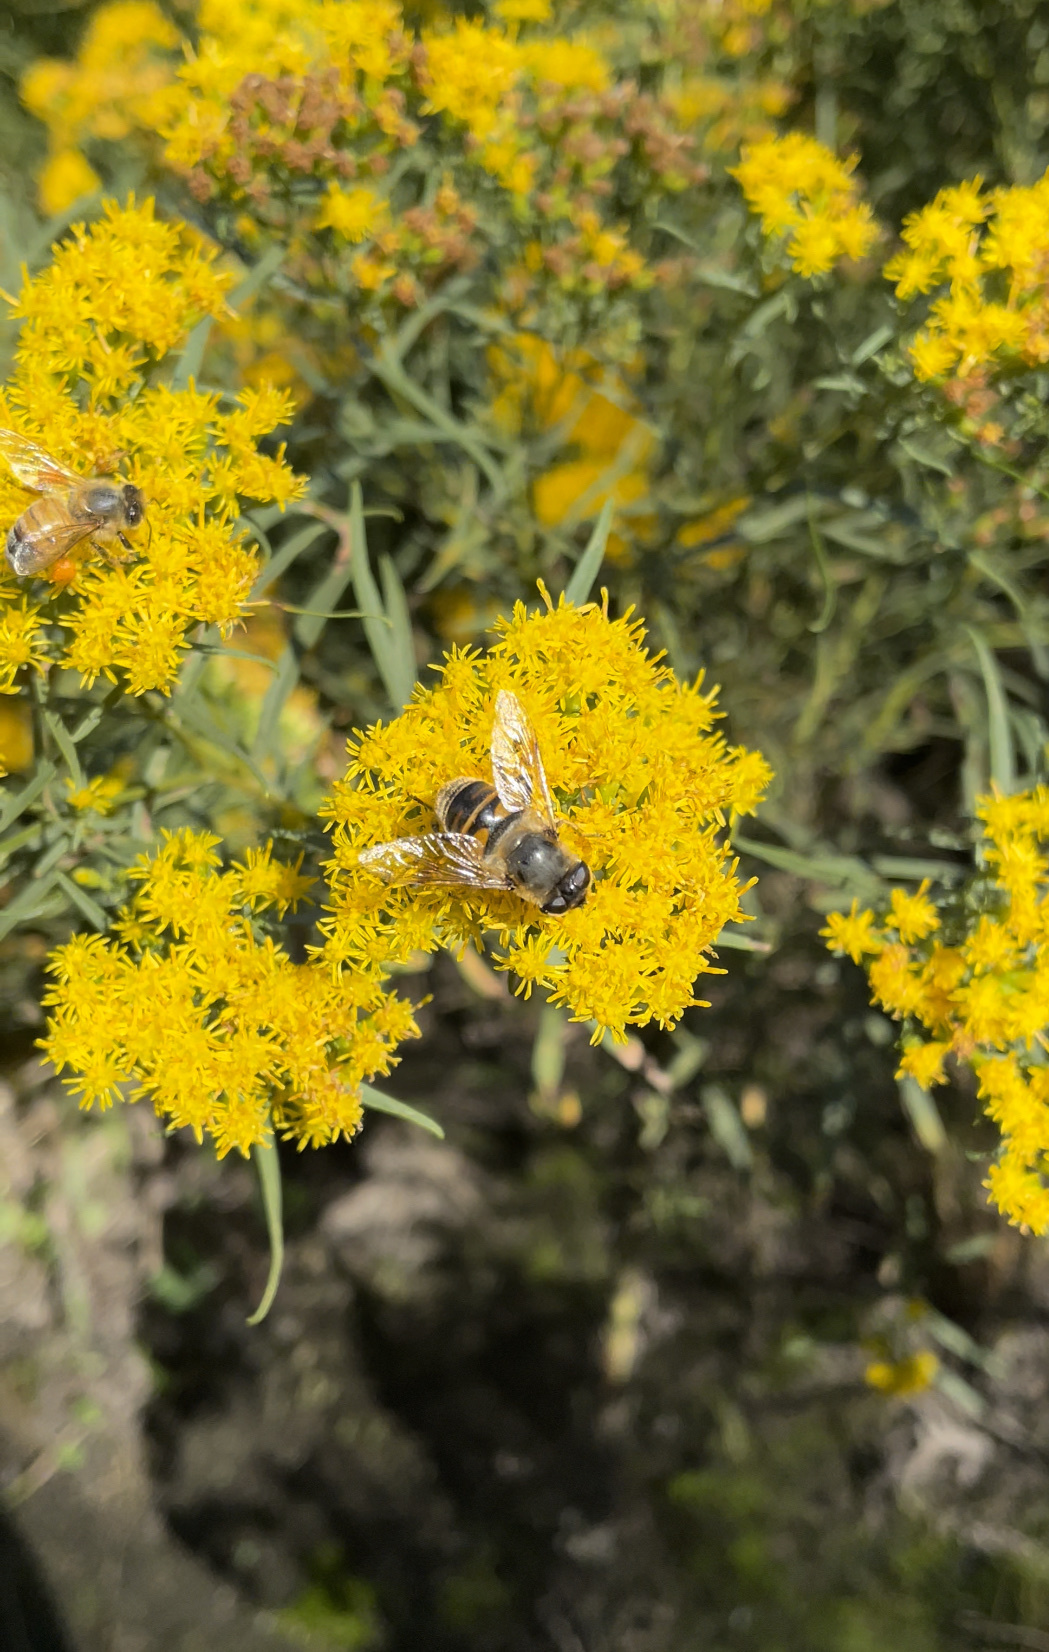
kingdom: Animalia
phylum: Arthropoda
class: Insecta
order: Diptera
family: Syrphidae
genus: Eristalis
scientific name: Eristalis tenax
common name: Drone fly
